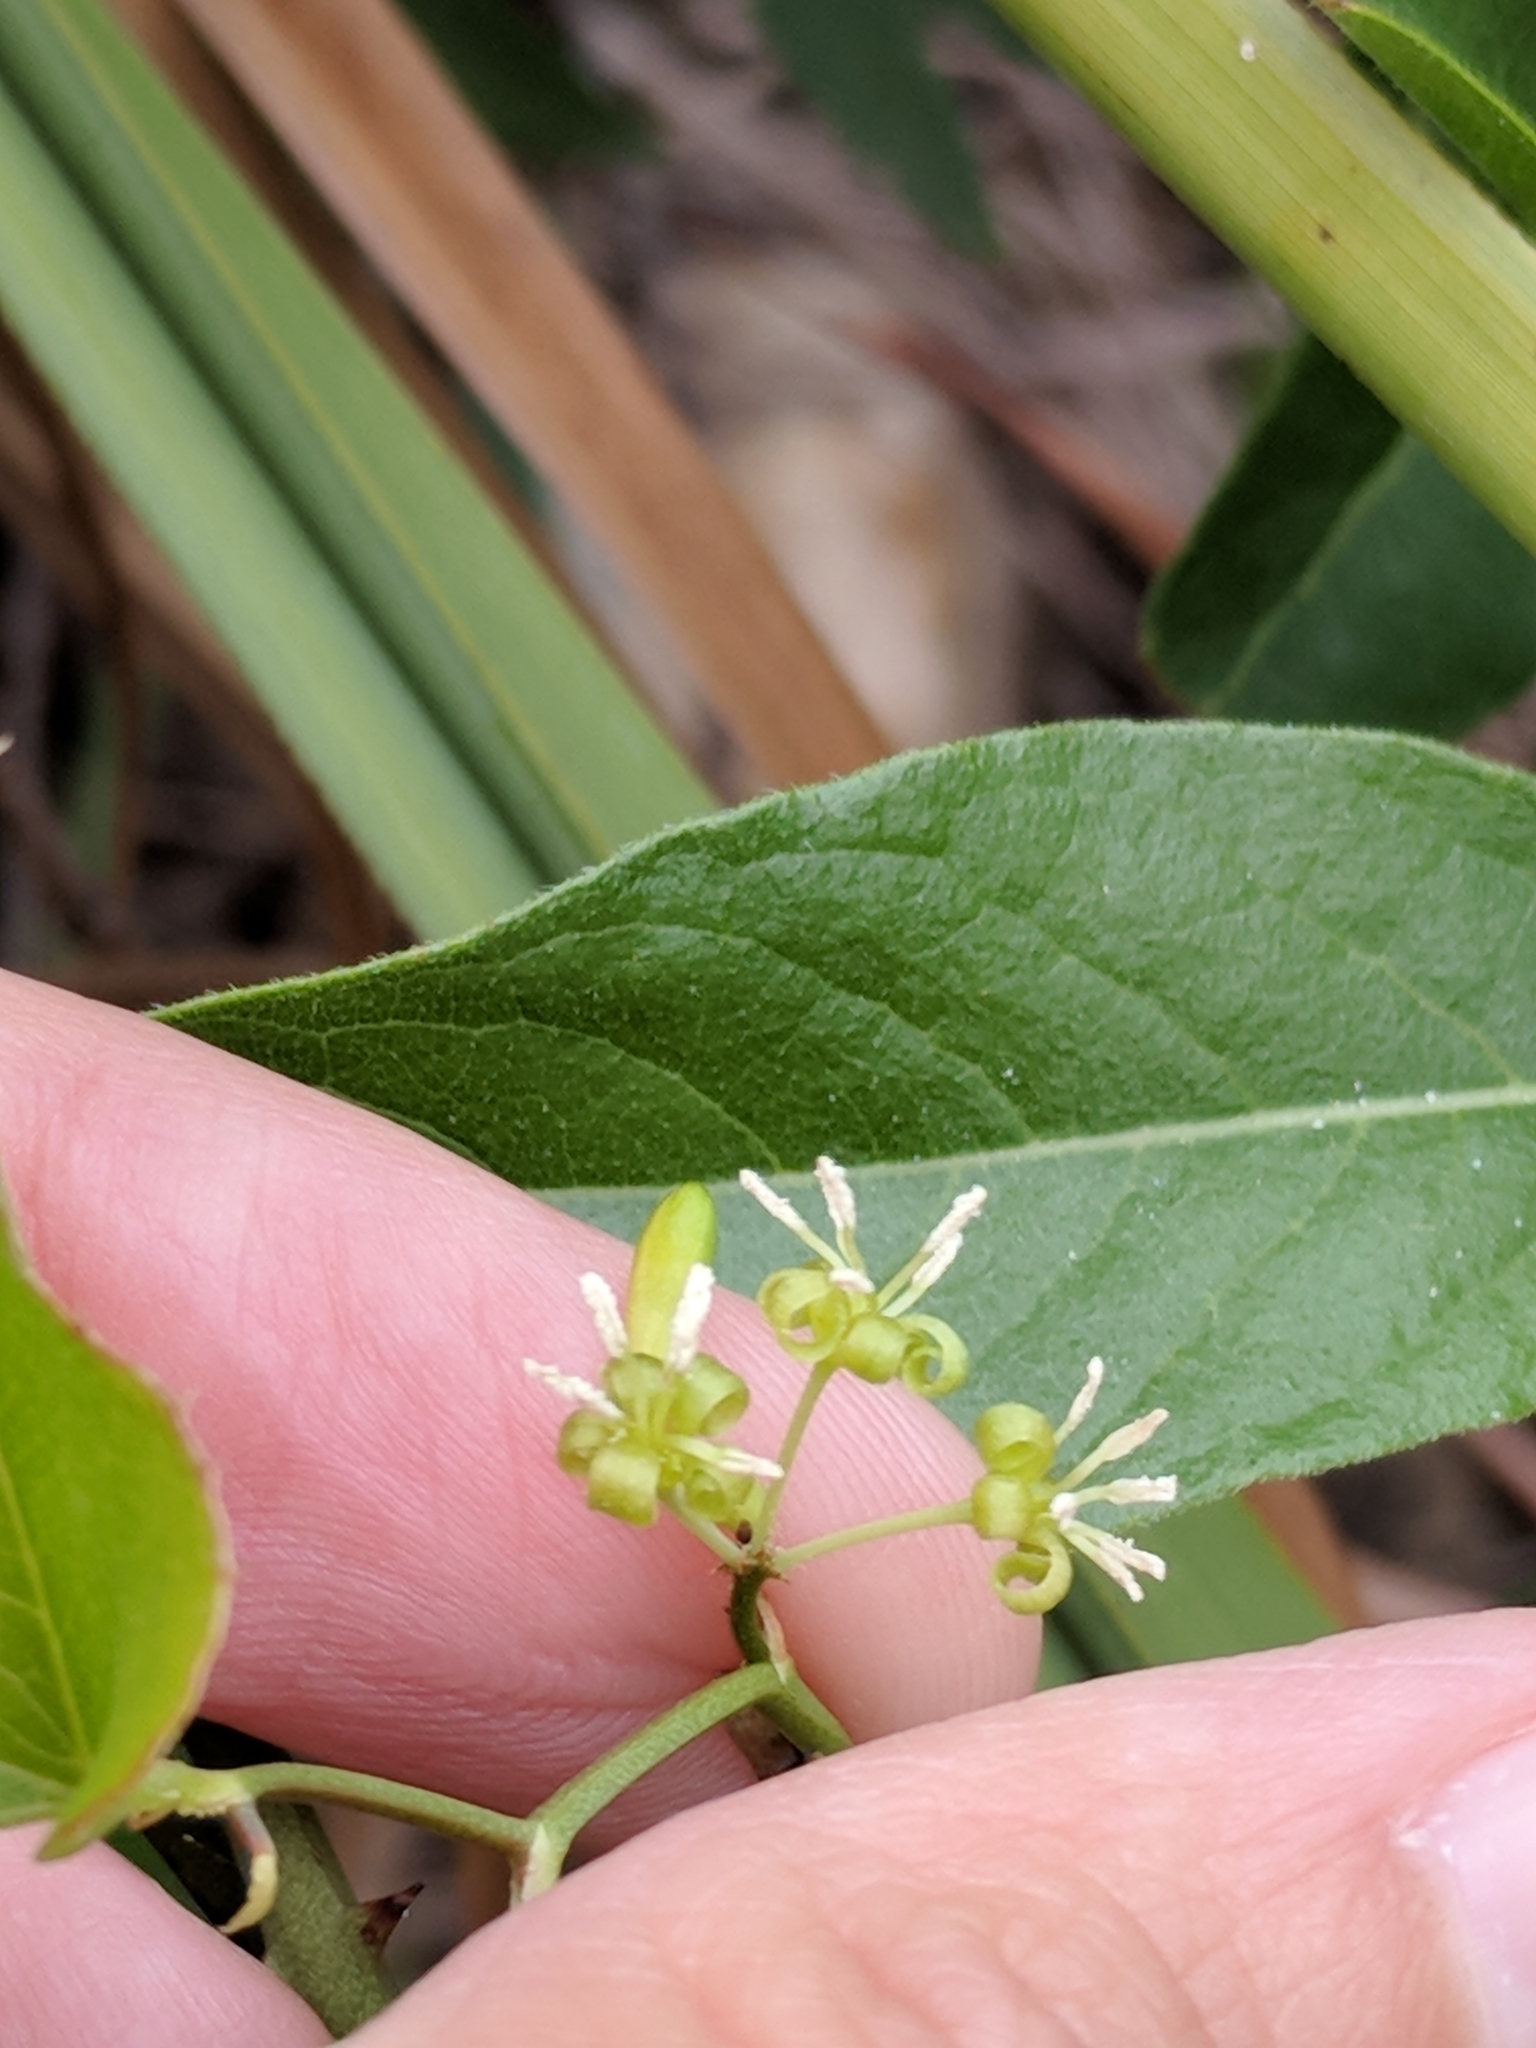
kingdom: Plantae
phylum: Tracheophyta
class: Liliopsida
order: Liliales
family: Smilacaceae
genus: Smilax
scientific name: Smilax bona-nox
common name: Catbrier
